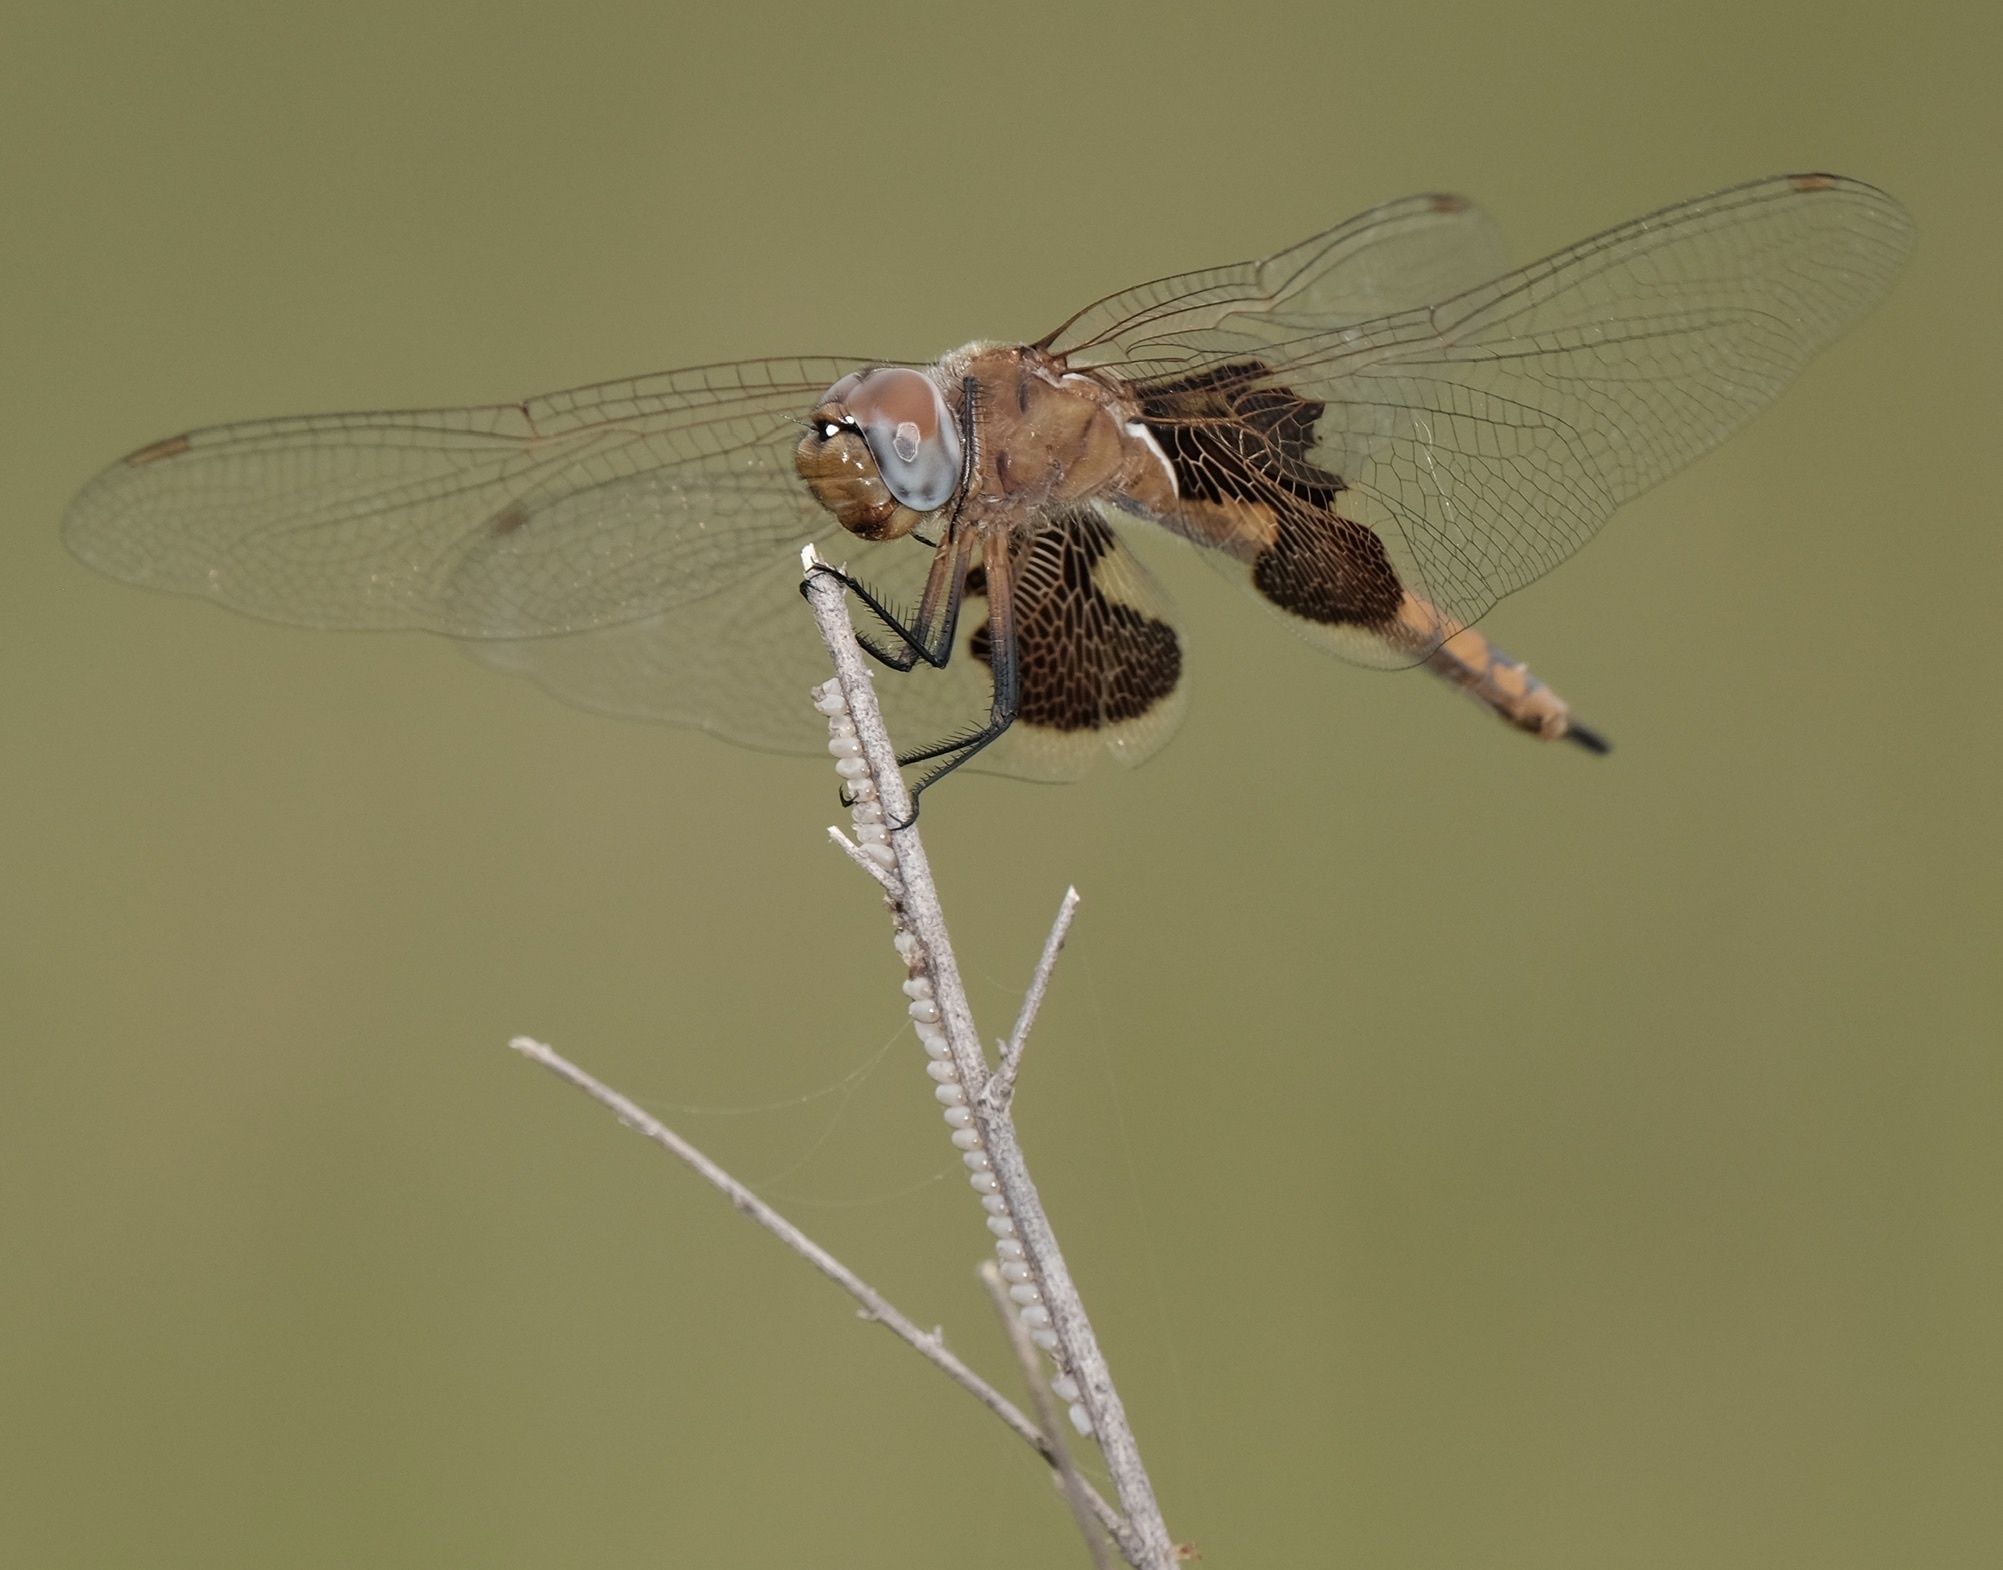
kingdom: Animalia
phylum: Arthropoda
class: Insecta
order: Odonata
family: Libellulidae
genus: Tramea
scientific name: Tramea onusta
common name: Red saddlebags
